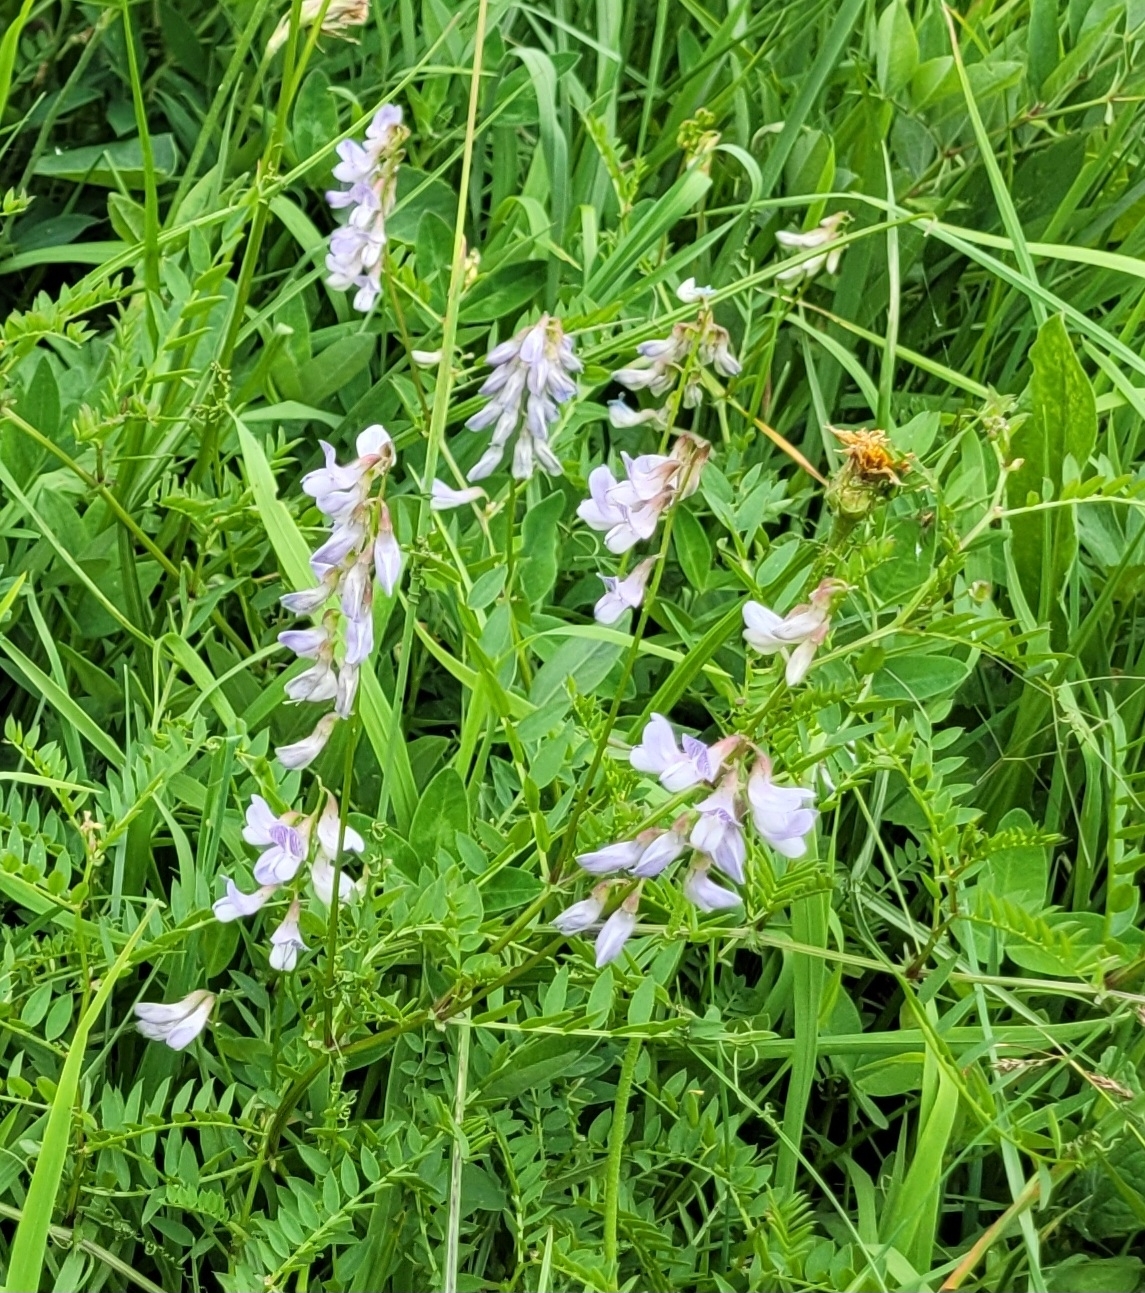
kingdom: Plantae
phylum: Tracheophyta
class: Magnoliopsida
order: Fabales
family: Fabaceae
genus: Vicia
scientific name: Vicia sylvatica
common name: Wood vetch
